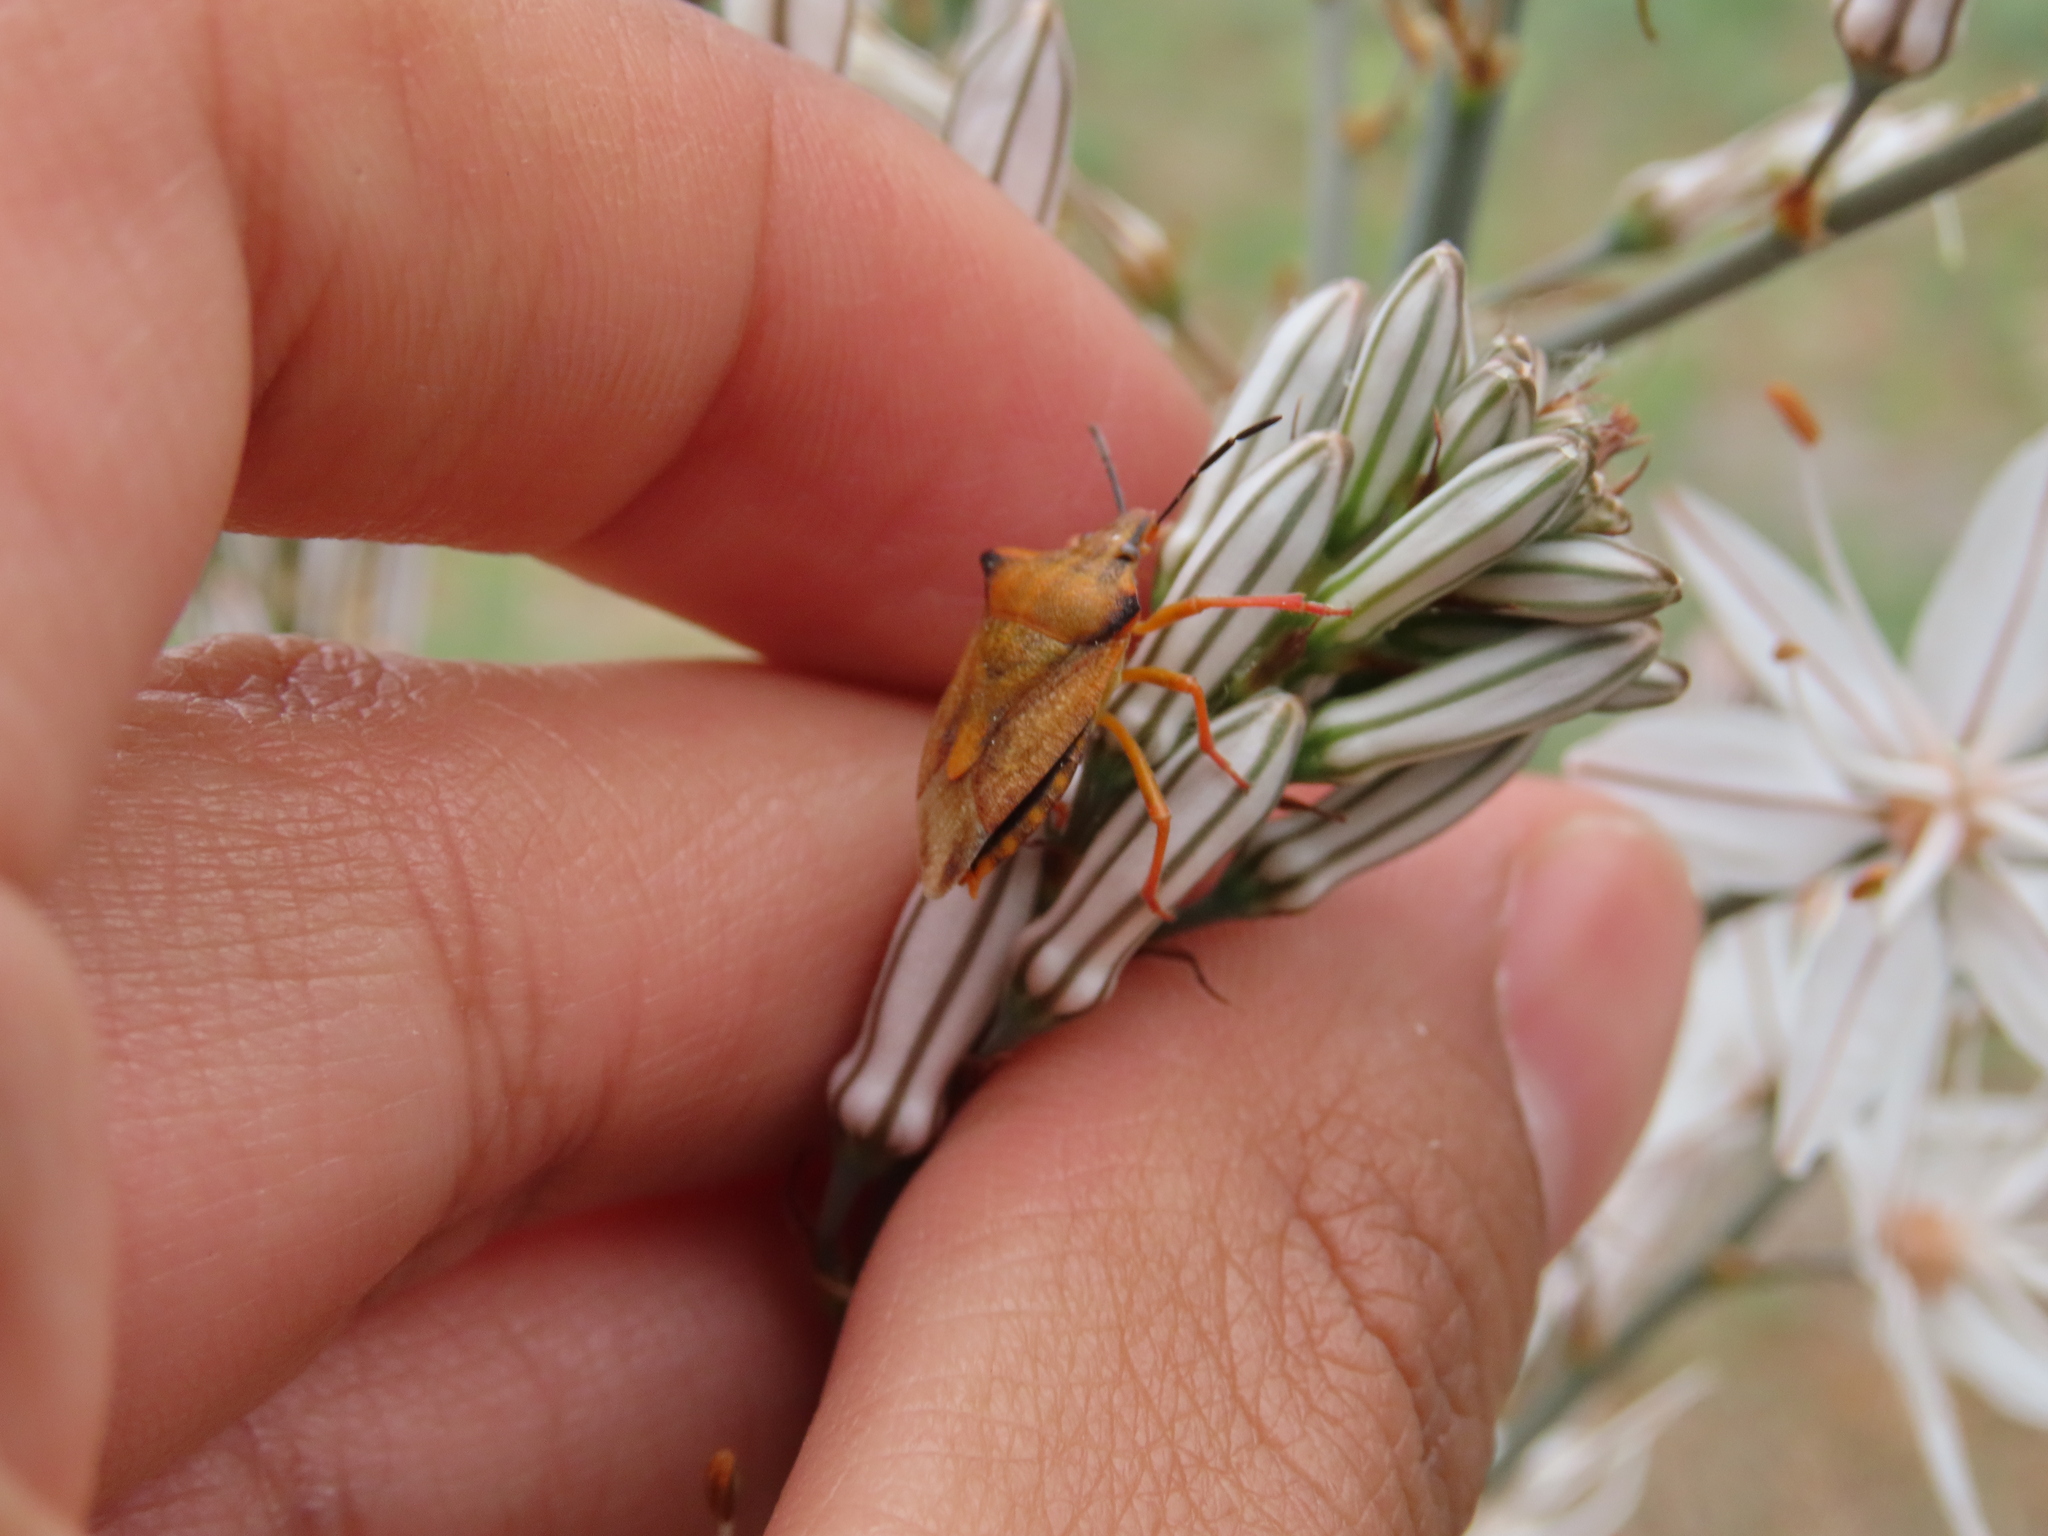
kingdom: Animalia
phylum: Arthropoda
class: Insecta
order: Hemiptera
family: Pentatomidae
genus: Carpocoris
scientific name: Carpocoris mediterraneus
